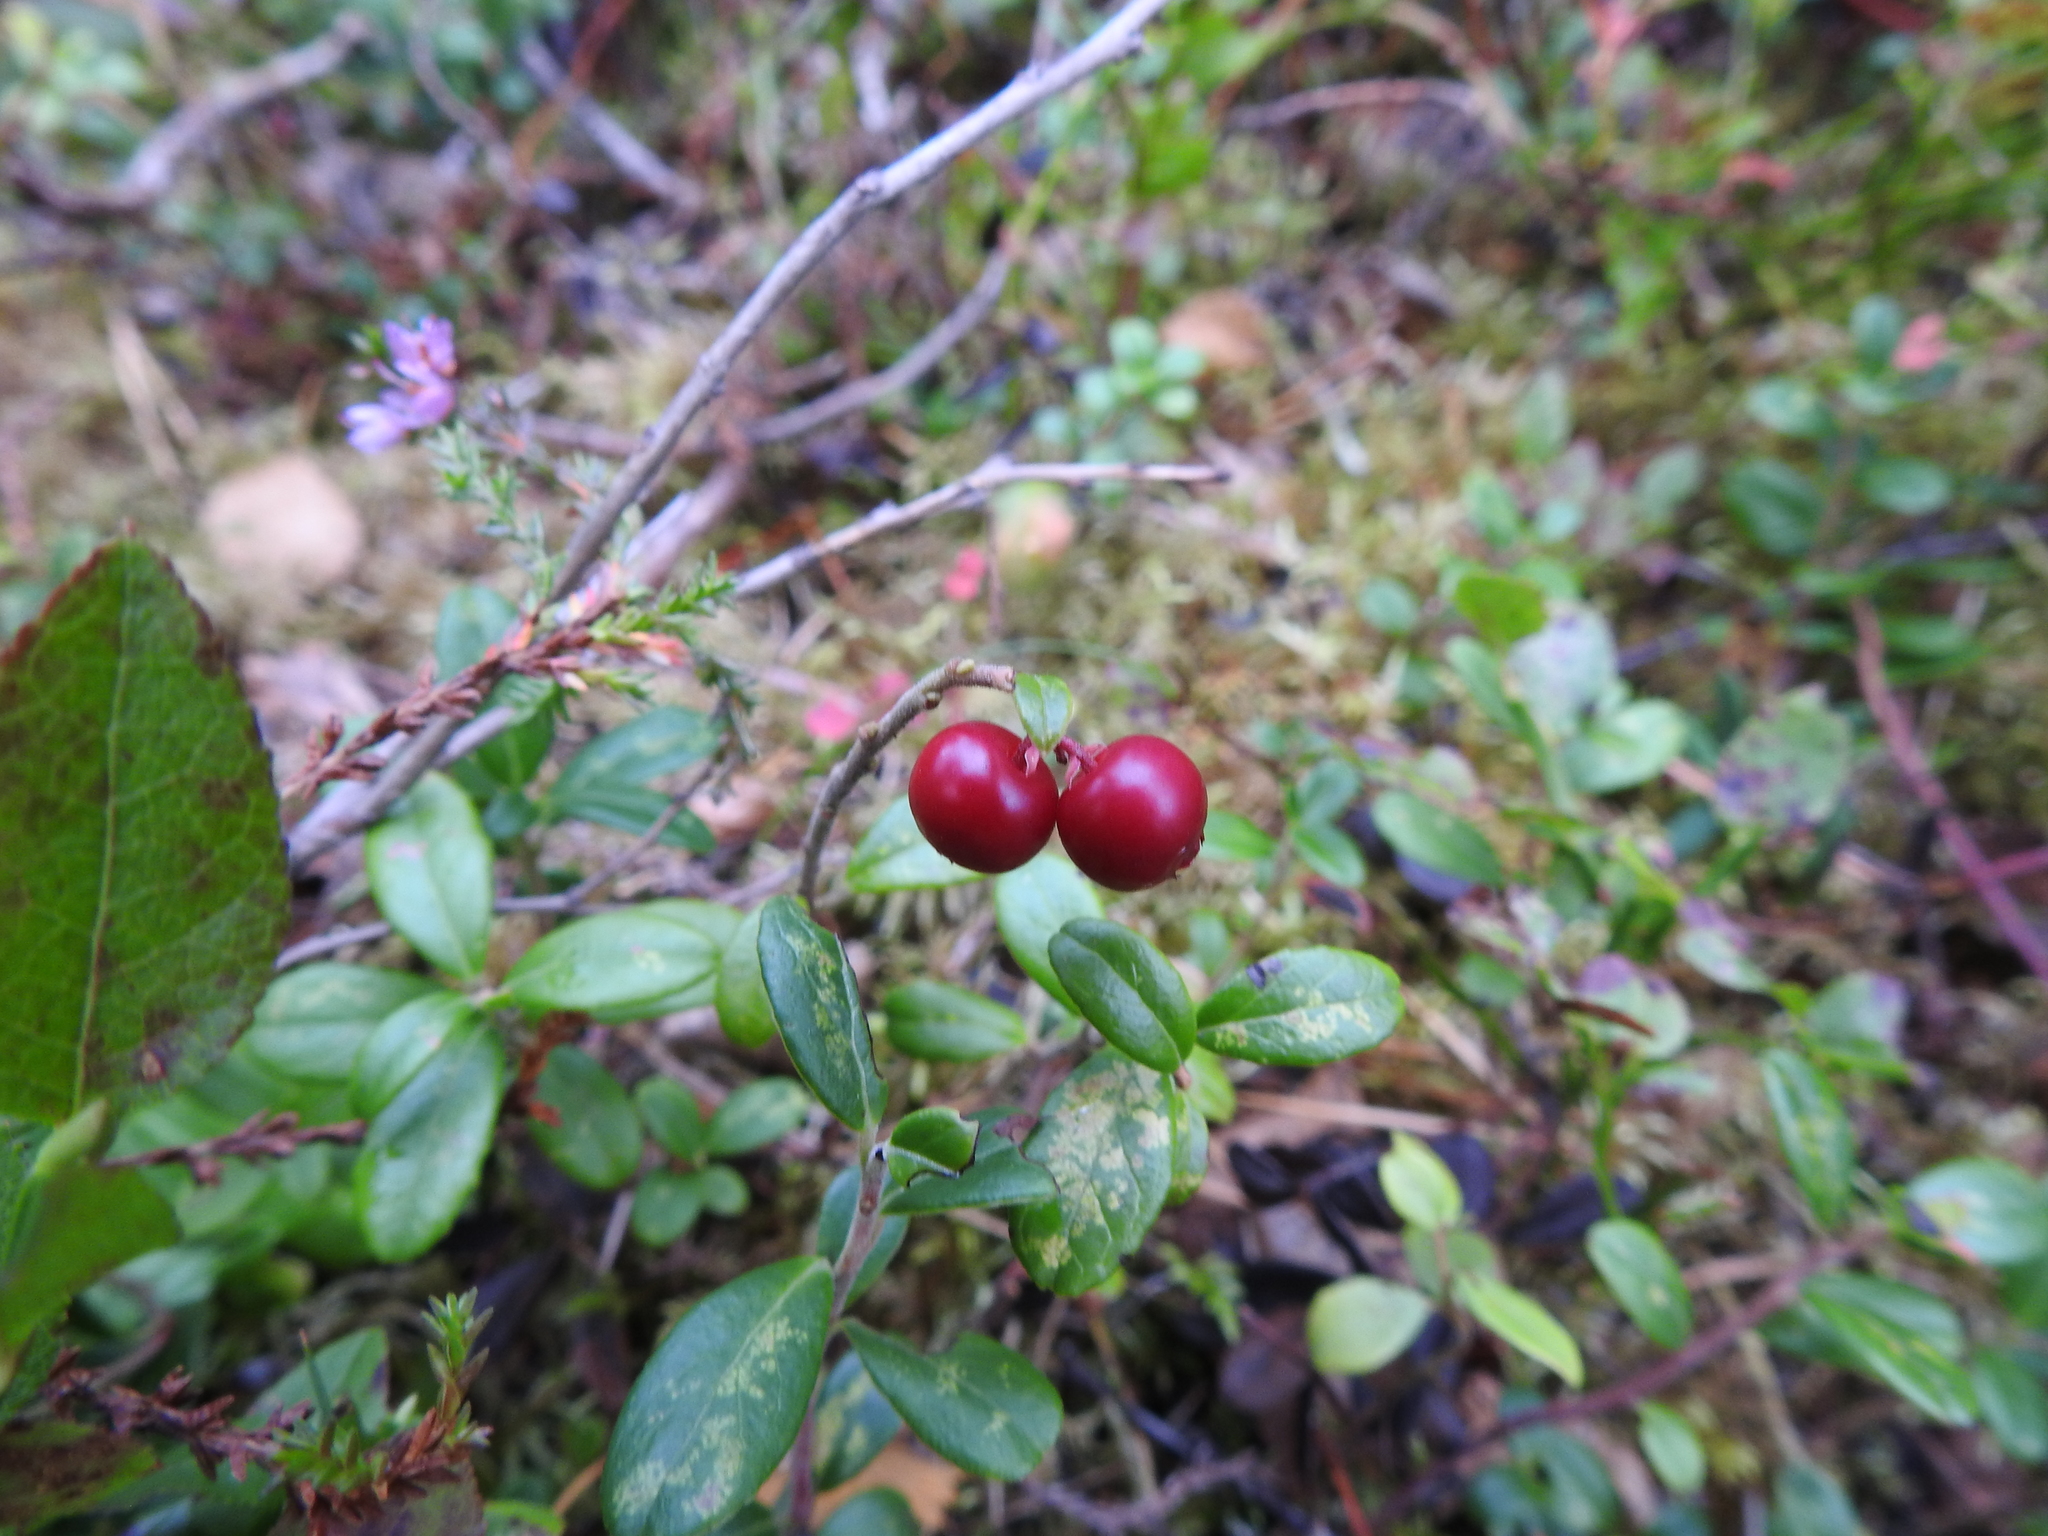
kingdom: Plantae
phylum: Tracheophyta
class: Magnoliopsida
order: Ericales
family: Ericaceae
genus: Vaccinium
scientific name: Vaccinium vitis-idaea
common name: Cowberry
